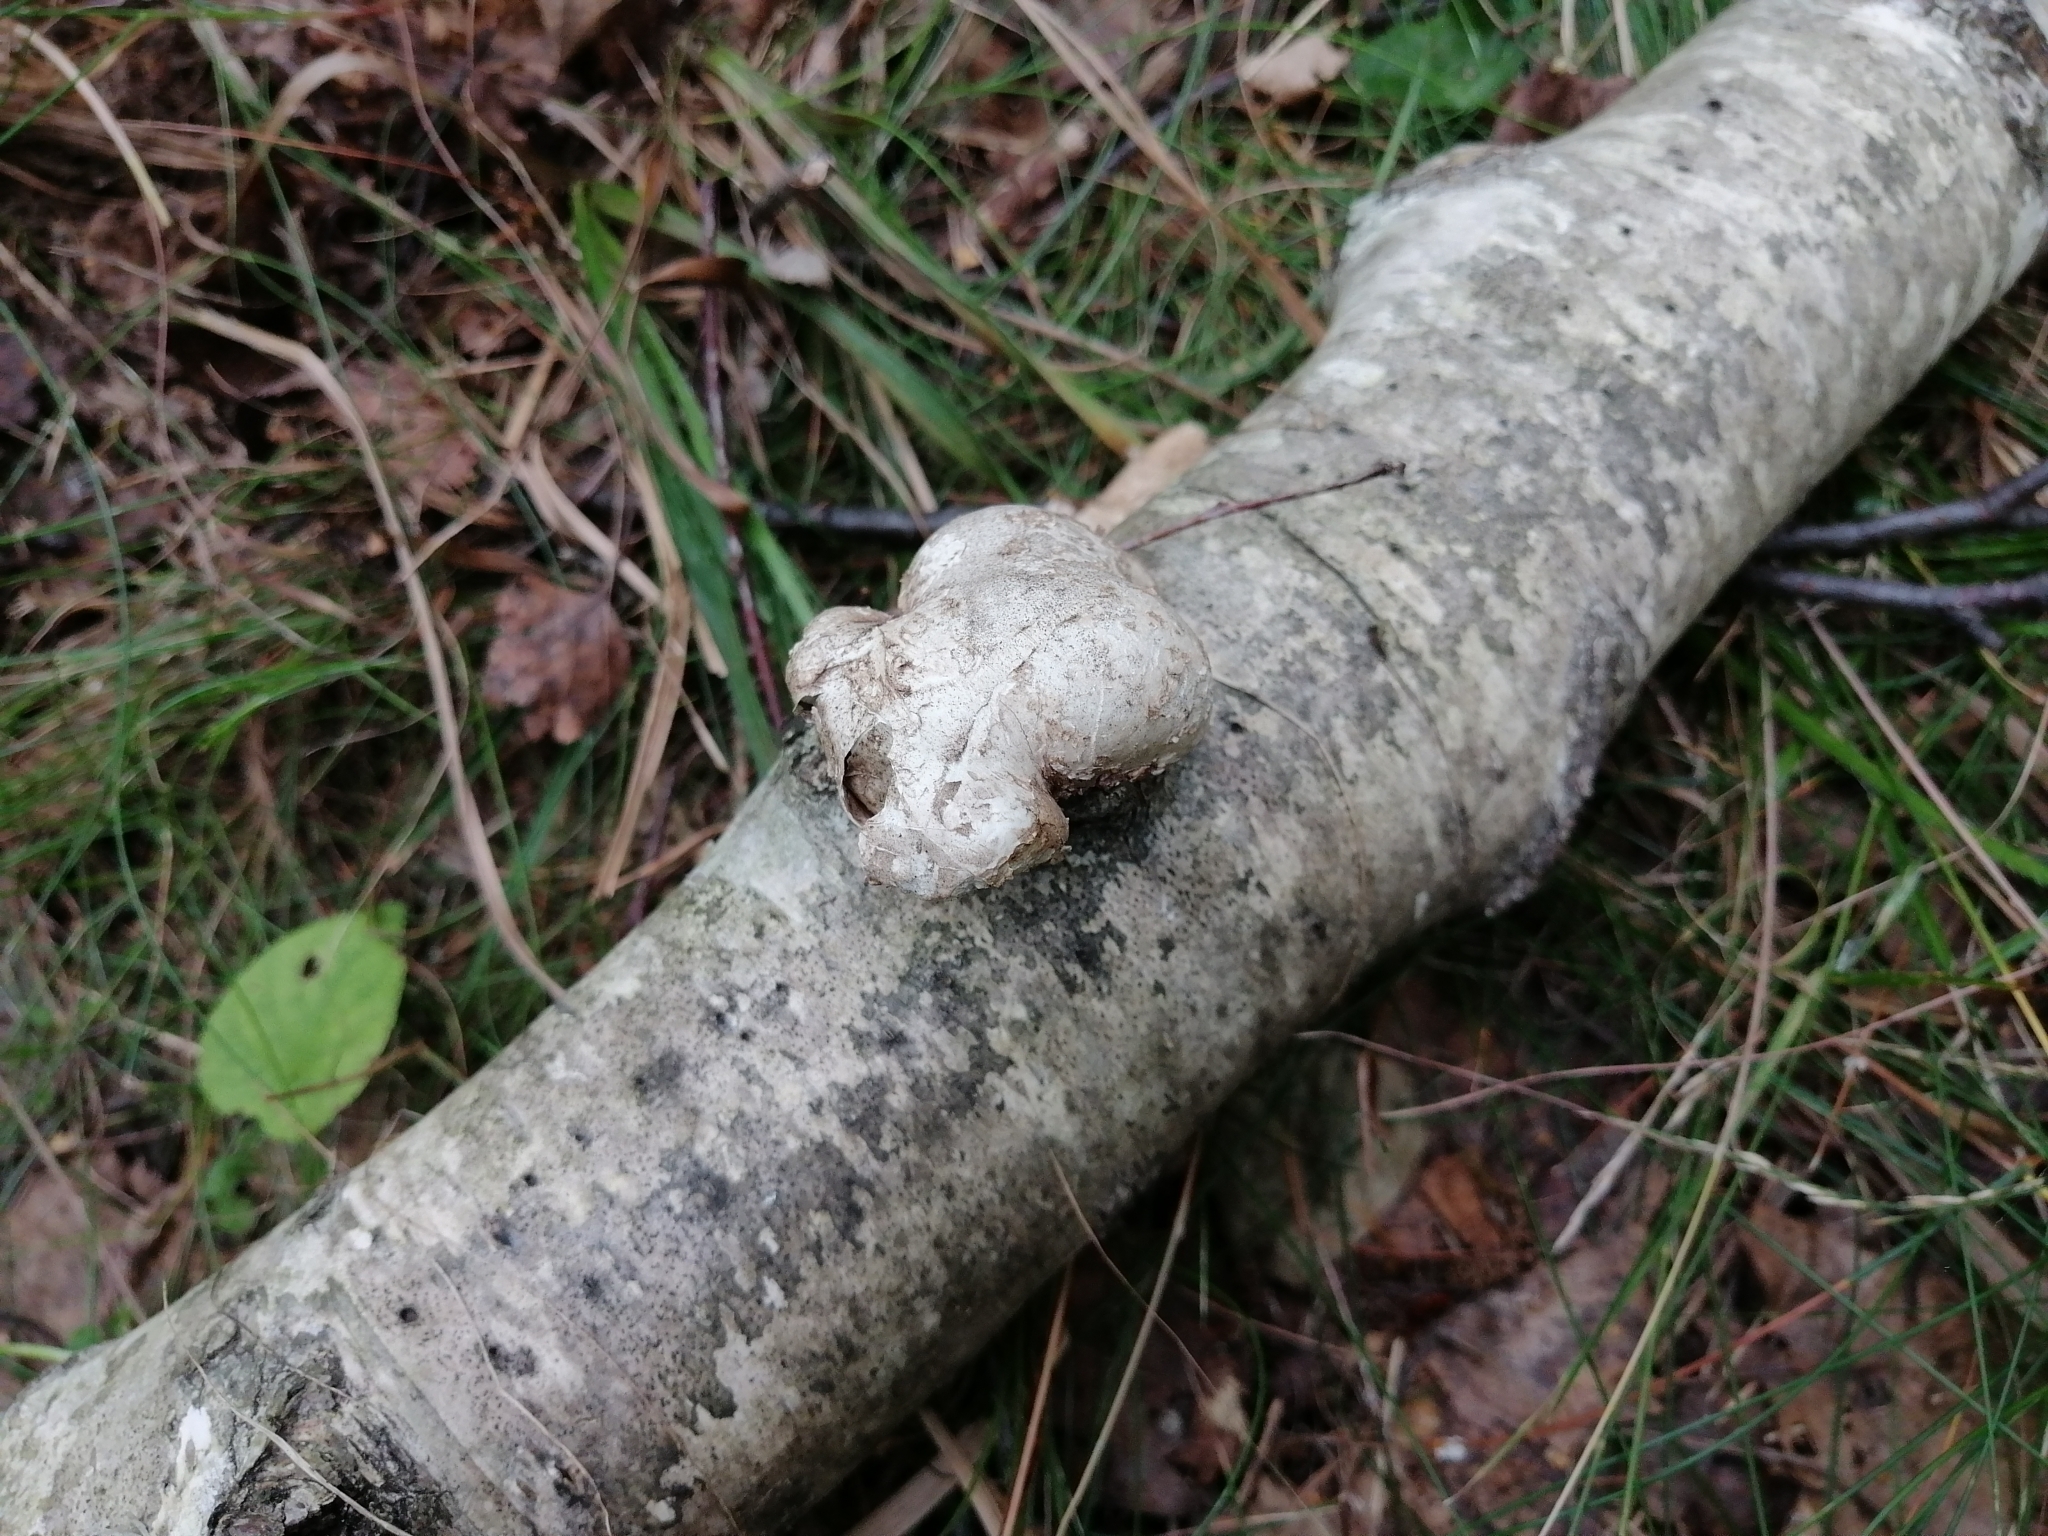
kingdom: Fungi
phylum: Basidiomycota
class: Agaricomycetes
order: Polyporales
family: Fomitopsidaceae
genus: Fomitopsis
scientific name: Fomitopsis betulina
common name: Birch polypore
